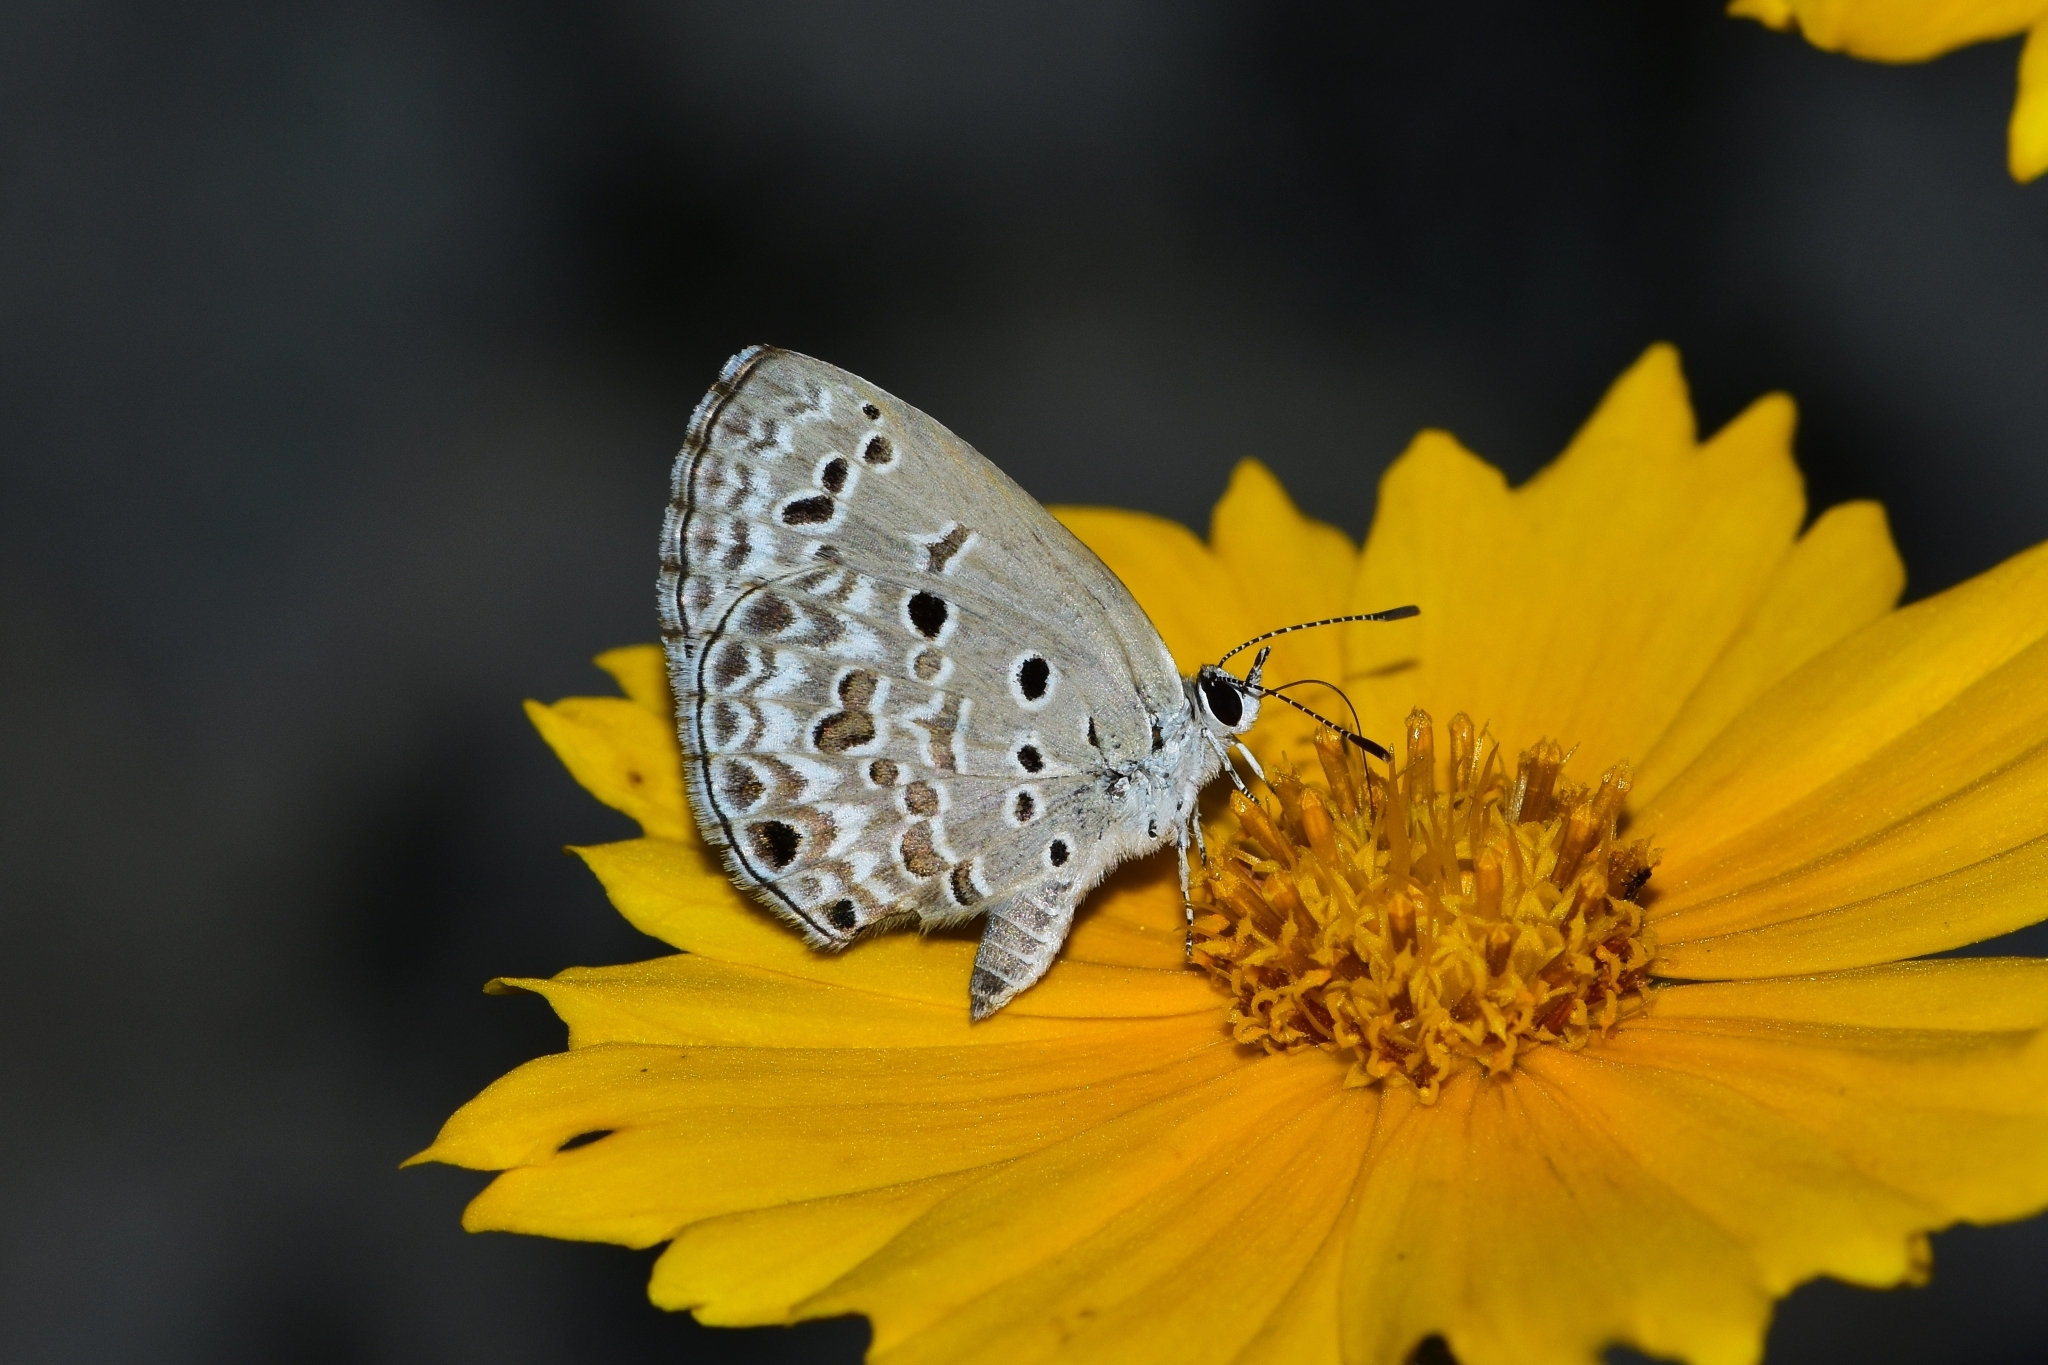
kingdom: Animalia
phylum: Arthropoda
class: Insecta
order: Lepidoptera
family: Lycaenidae
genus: Chilades
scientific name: Chilades laius
